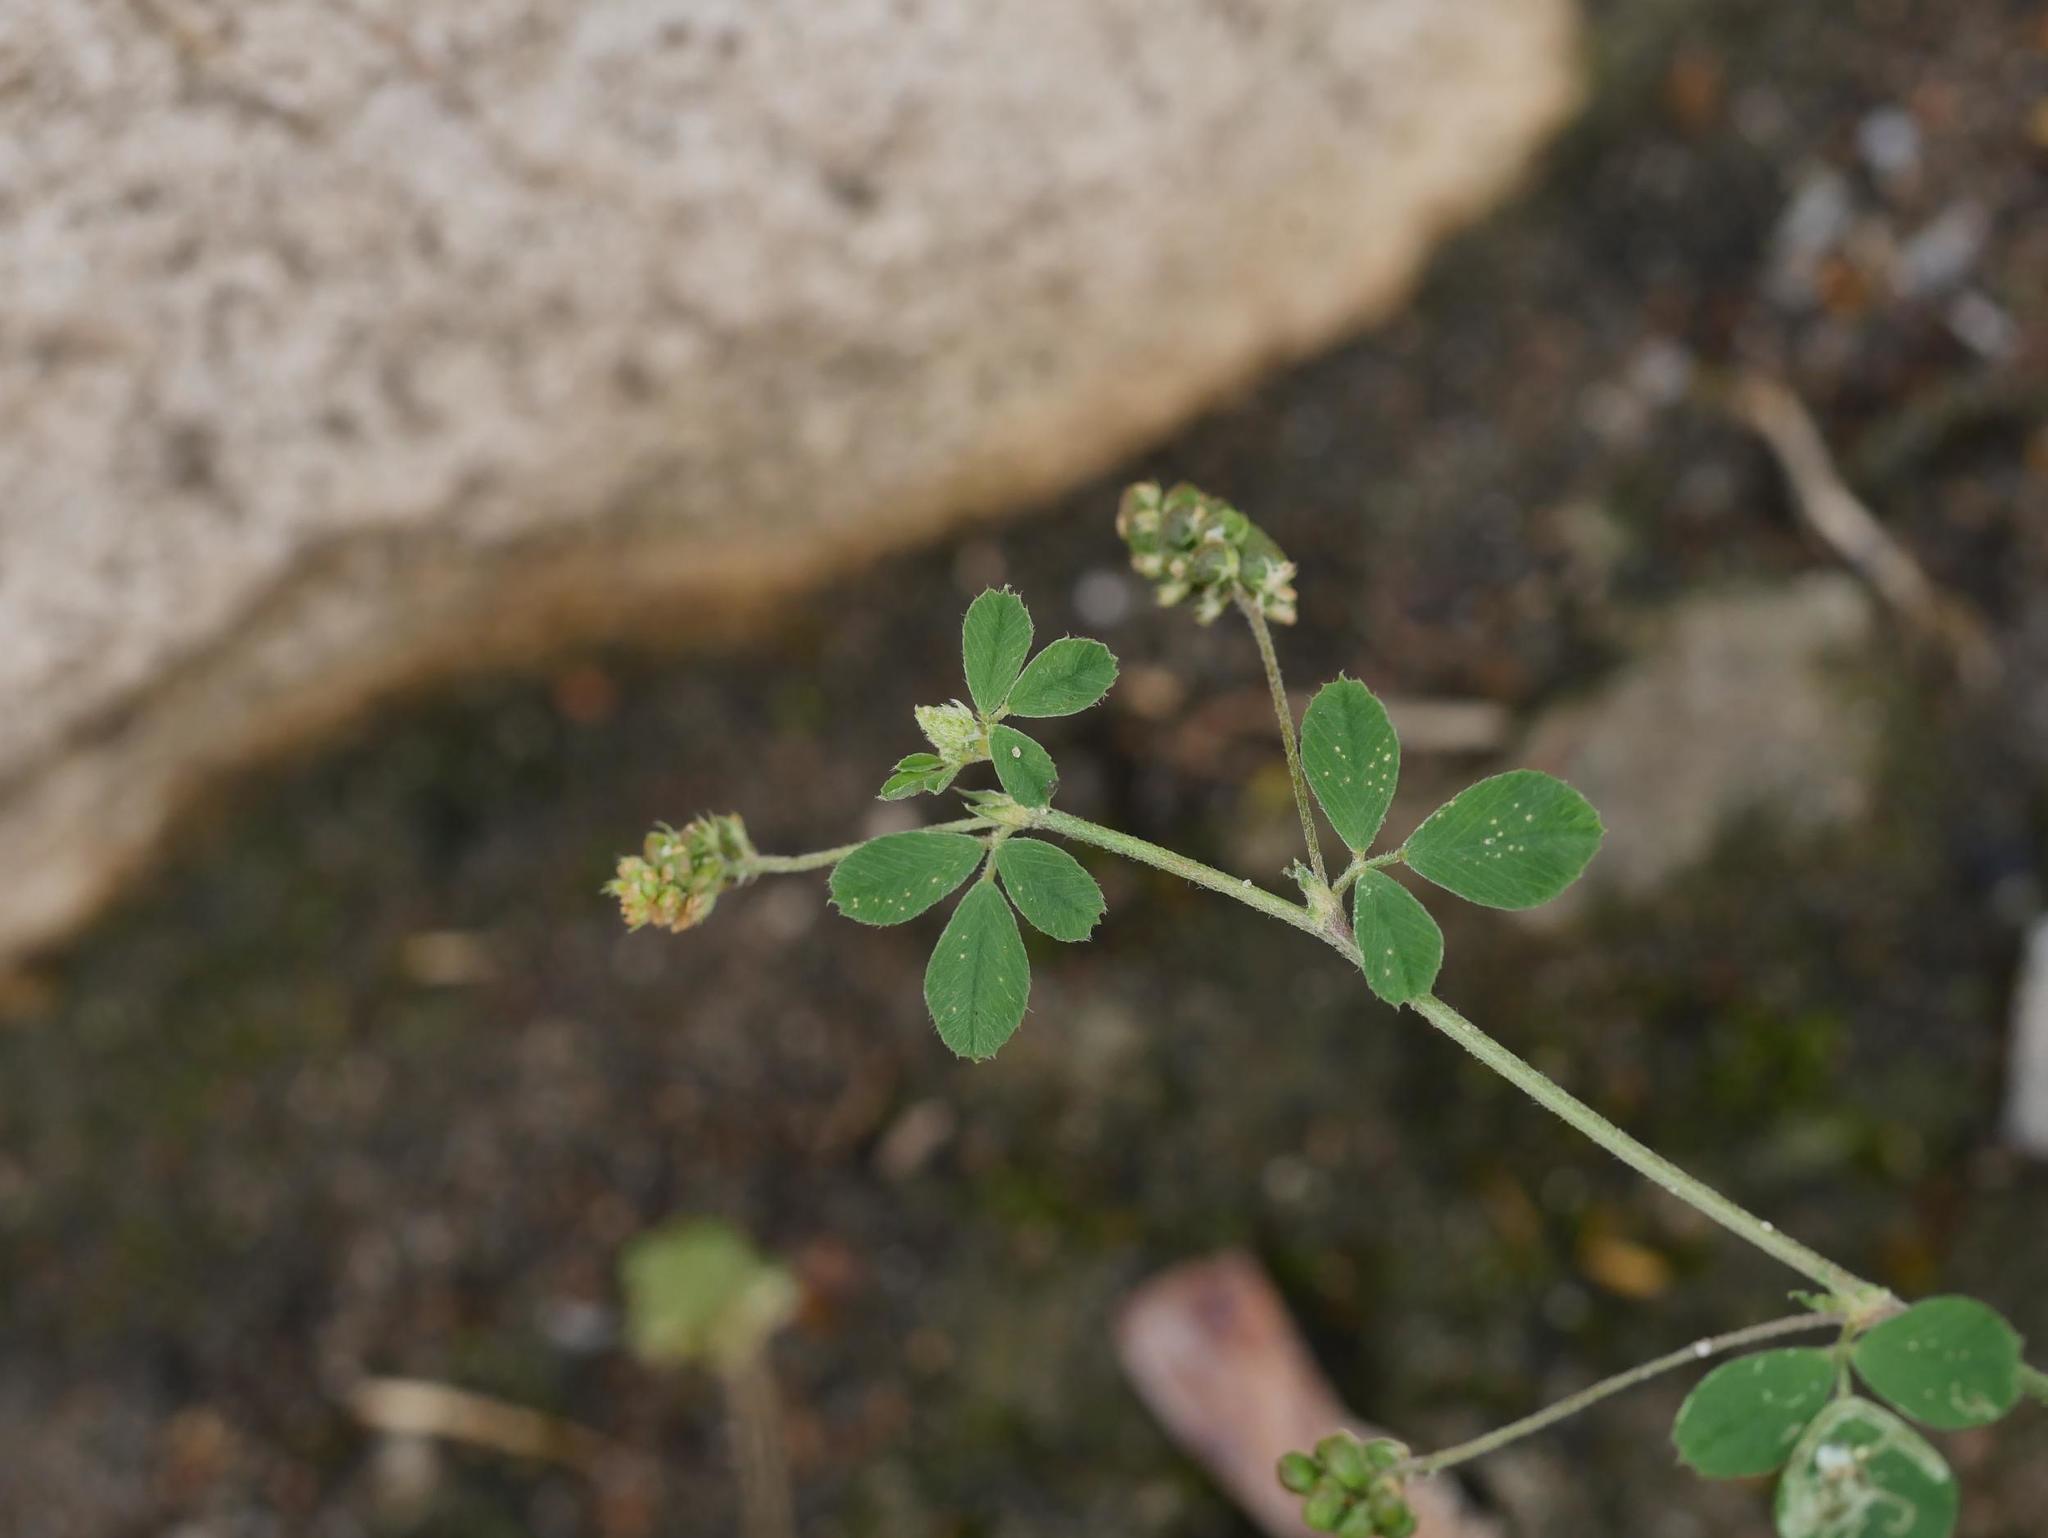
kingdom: Plantae
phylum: Tracheophyta
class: Magnoliopsida
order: Fabales
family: Fabaceae
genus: Medicago
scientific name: Medicago lupulina
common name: Black medick
